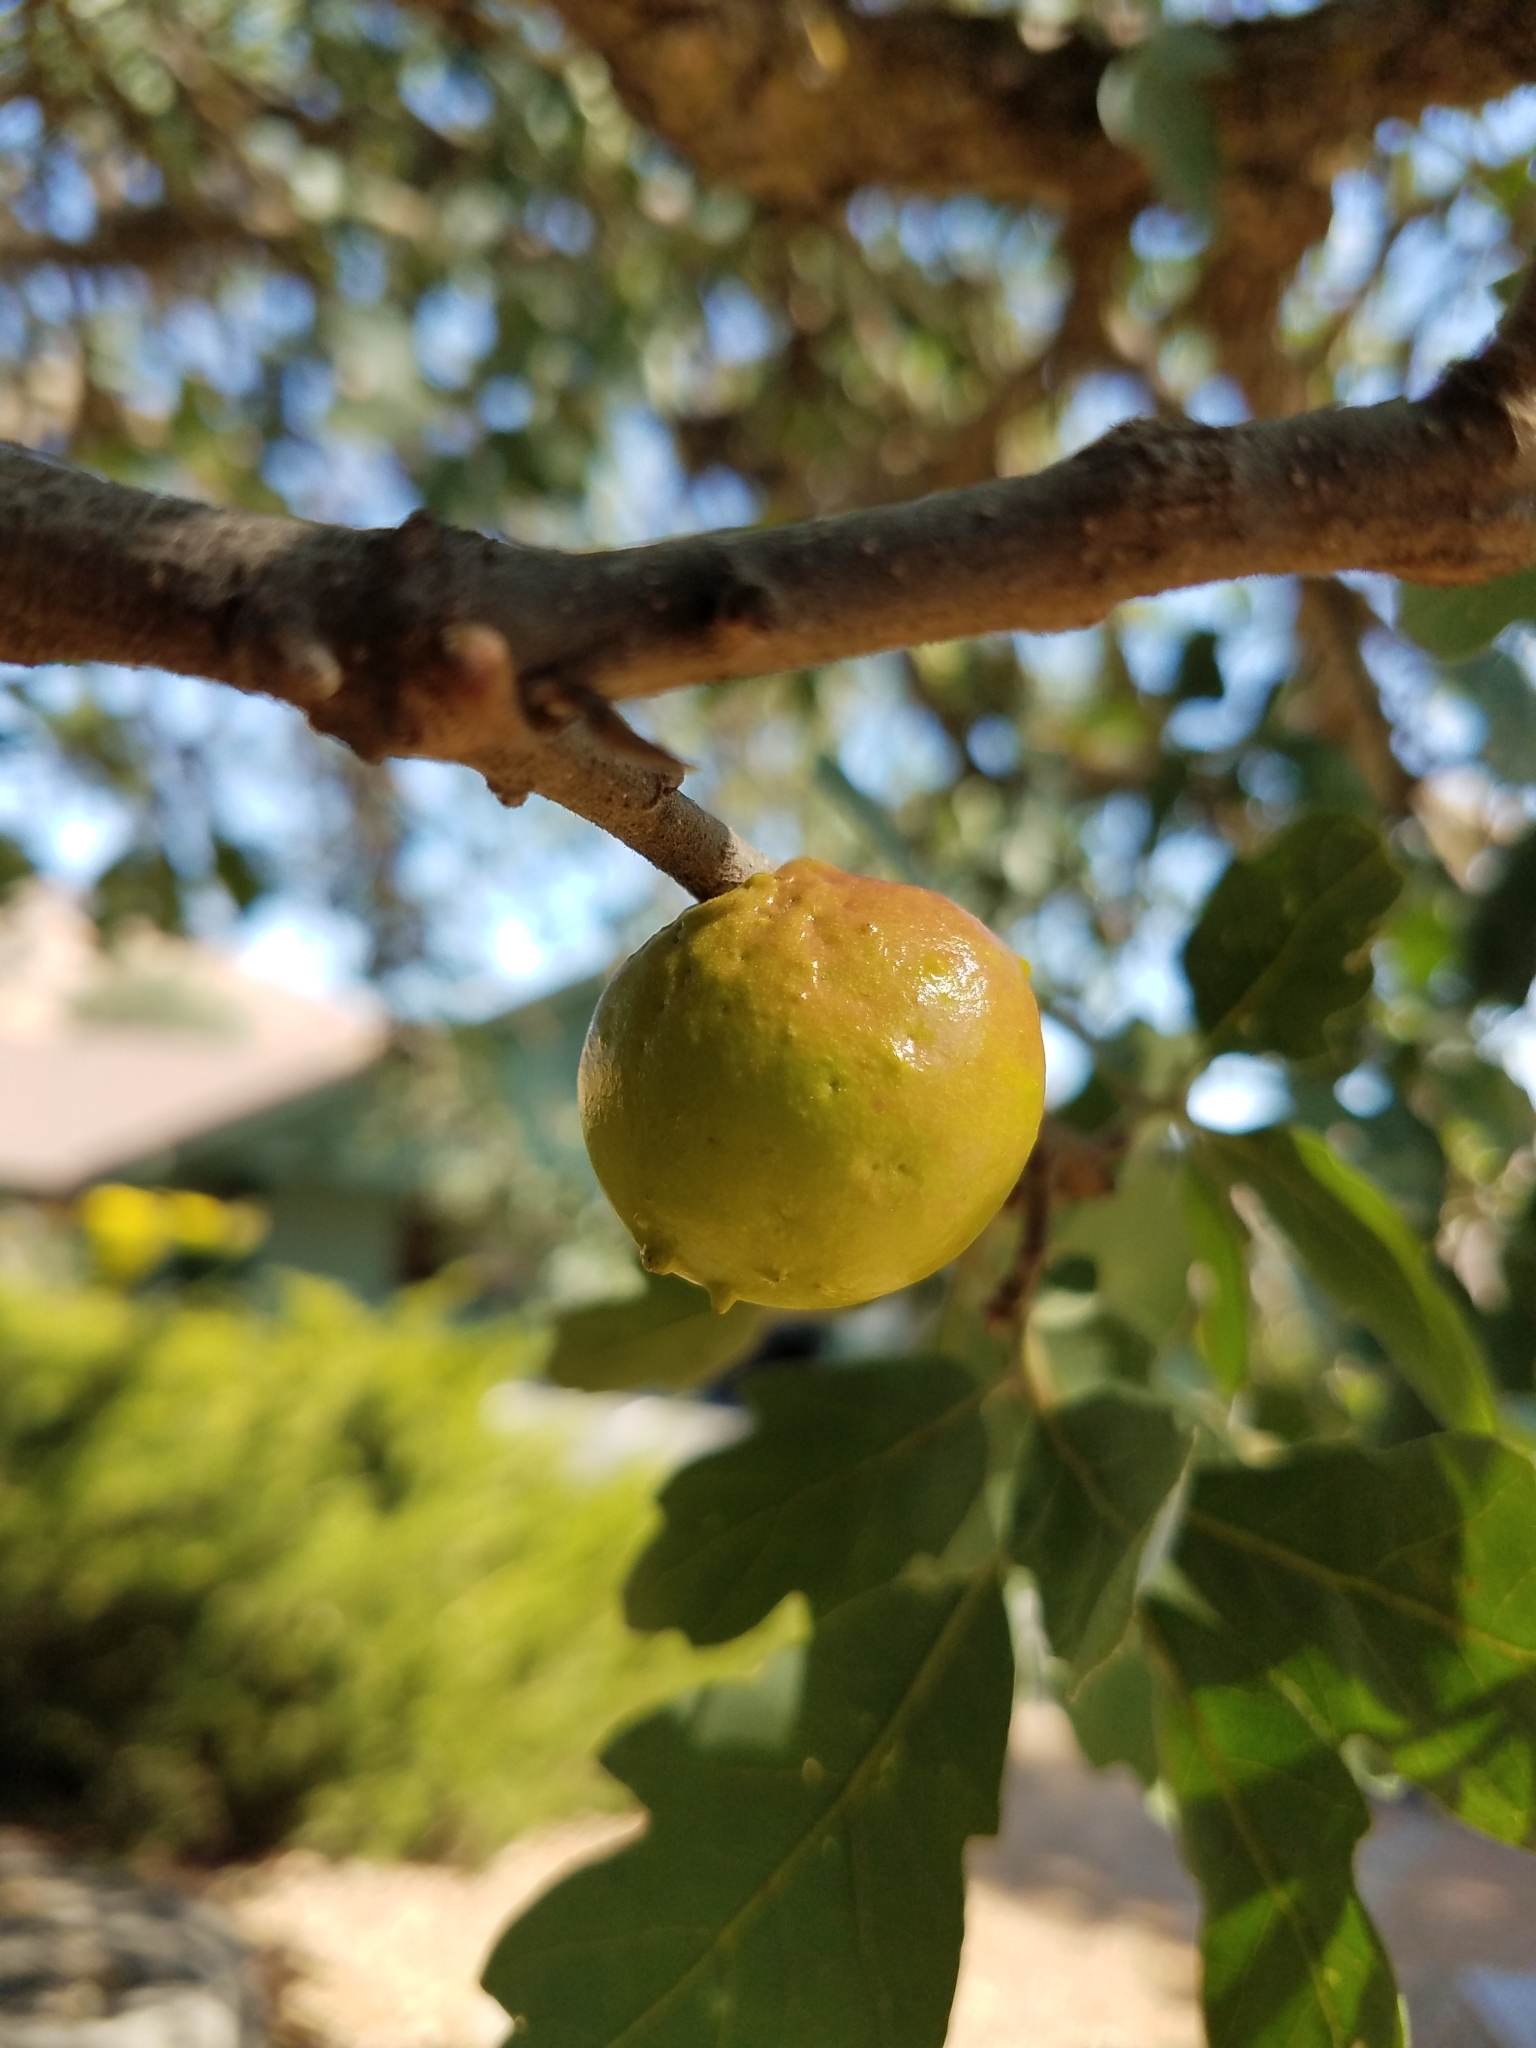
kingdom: Animalia
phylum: Arthropoda
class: Insecta
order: Hymenoptera
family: Cynipidae
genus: Andricus
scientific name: Andricus quercuscalifornicus
